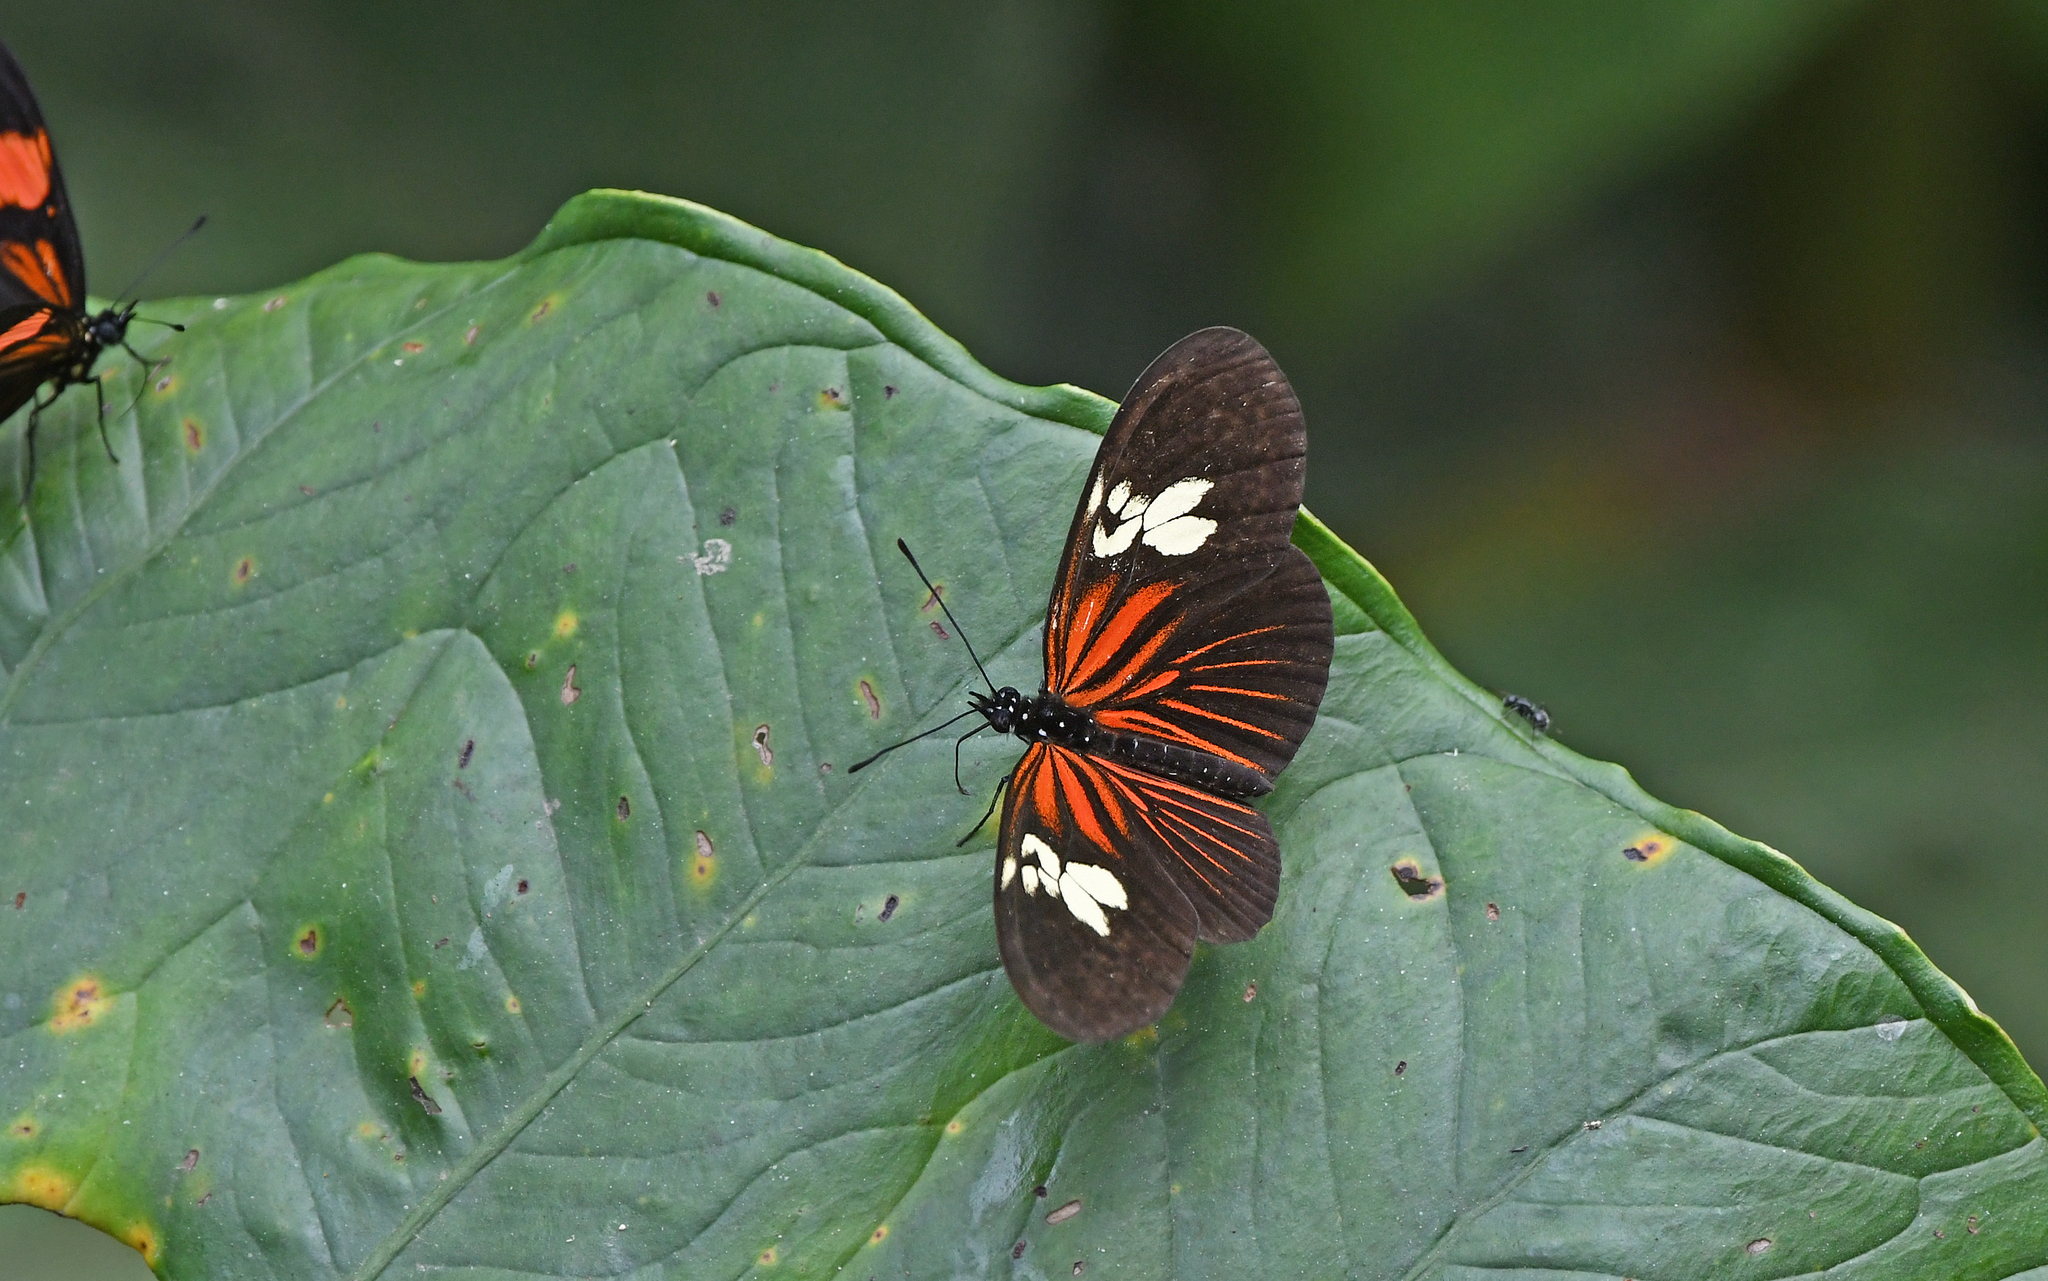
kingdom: Animalia
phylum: Arthropoda
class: Insecta
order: Lepidoptera
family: Nymphalidae
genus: Eueides
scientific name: Eueides heliconioides
